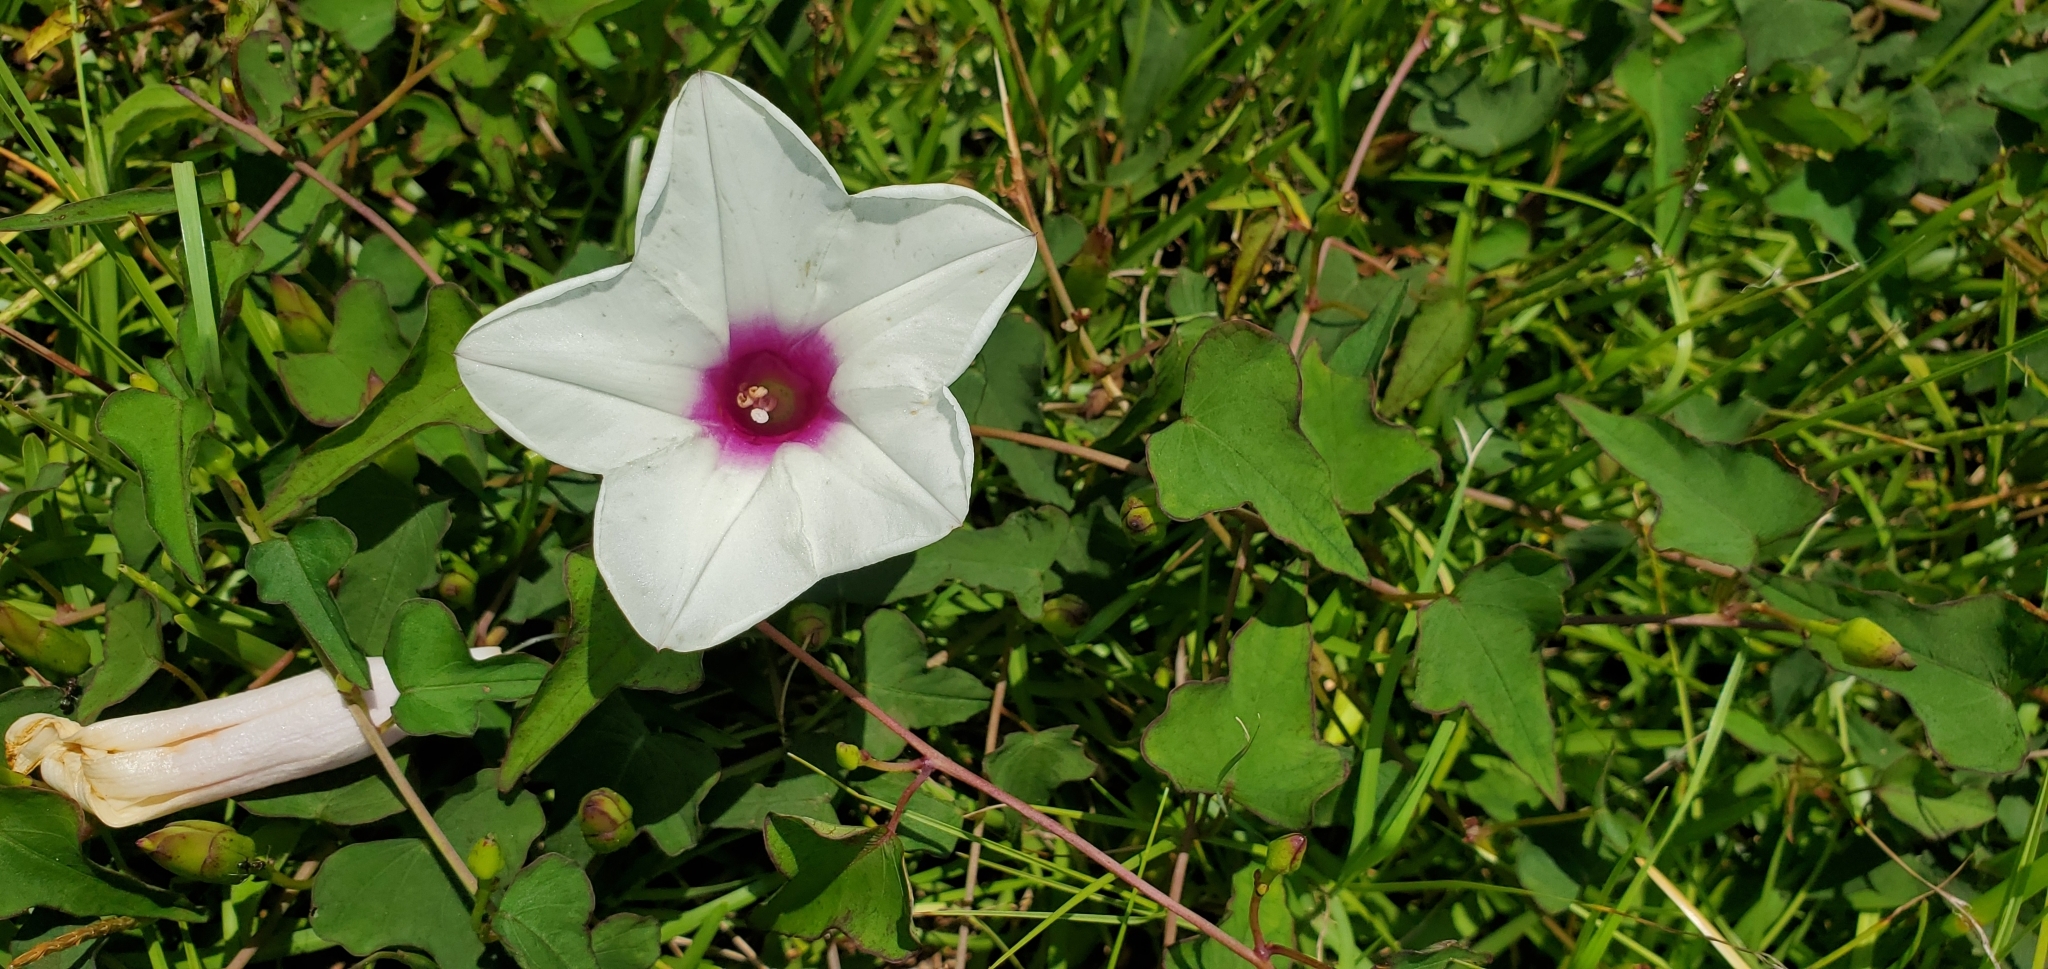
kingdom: Plantae
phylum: Tracheophyta
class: Magnoliopsida
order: Solanales
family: Convolvulaceae
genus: Ipomoea
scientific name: Ipomoea pandurata
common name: Man-of-the-earth
